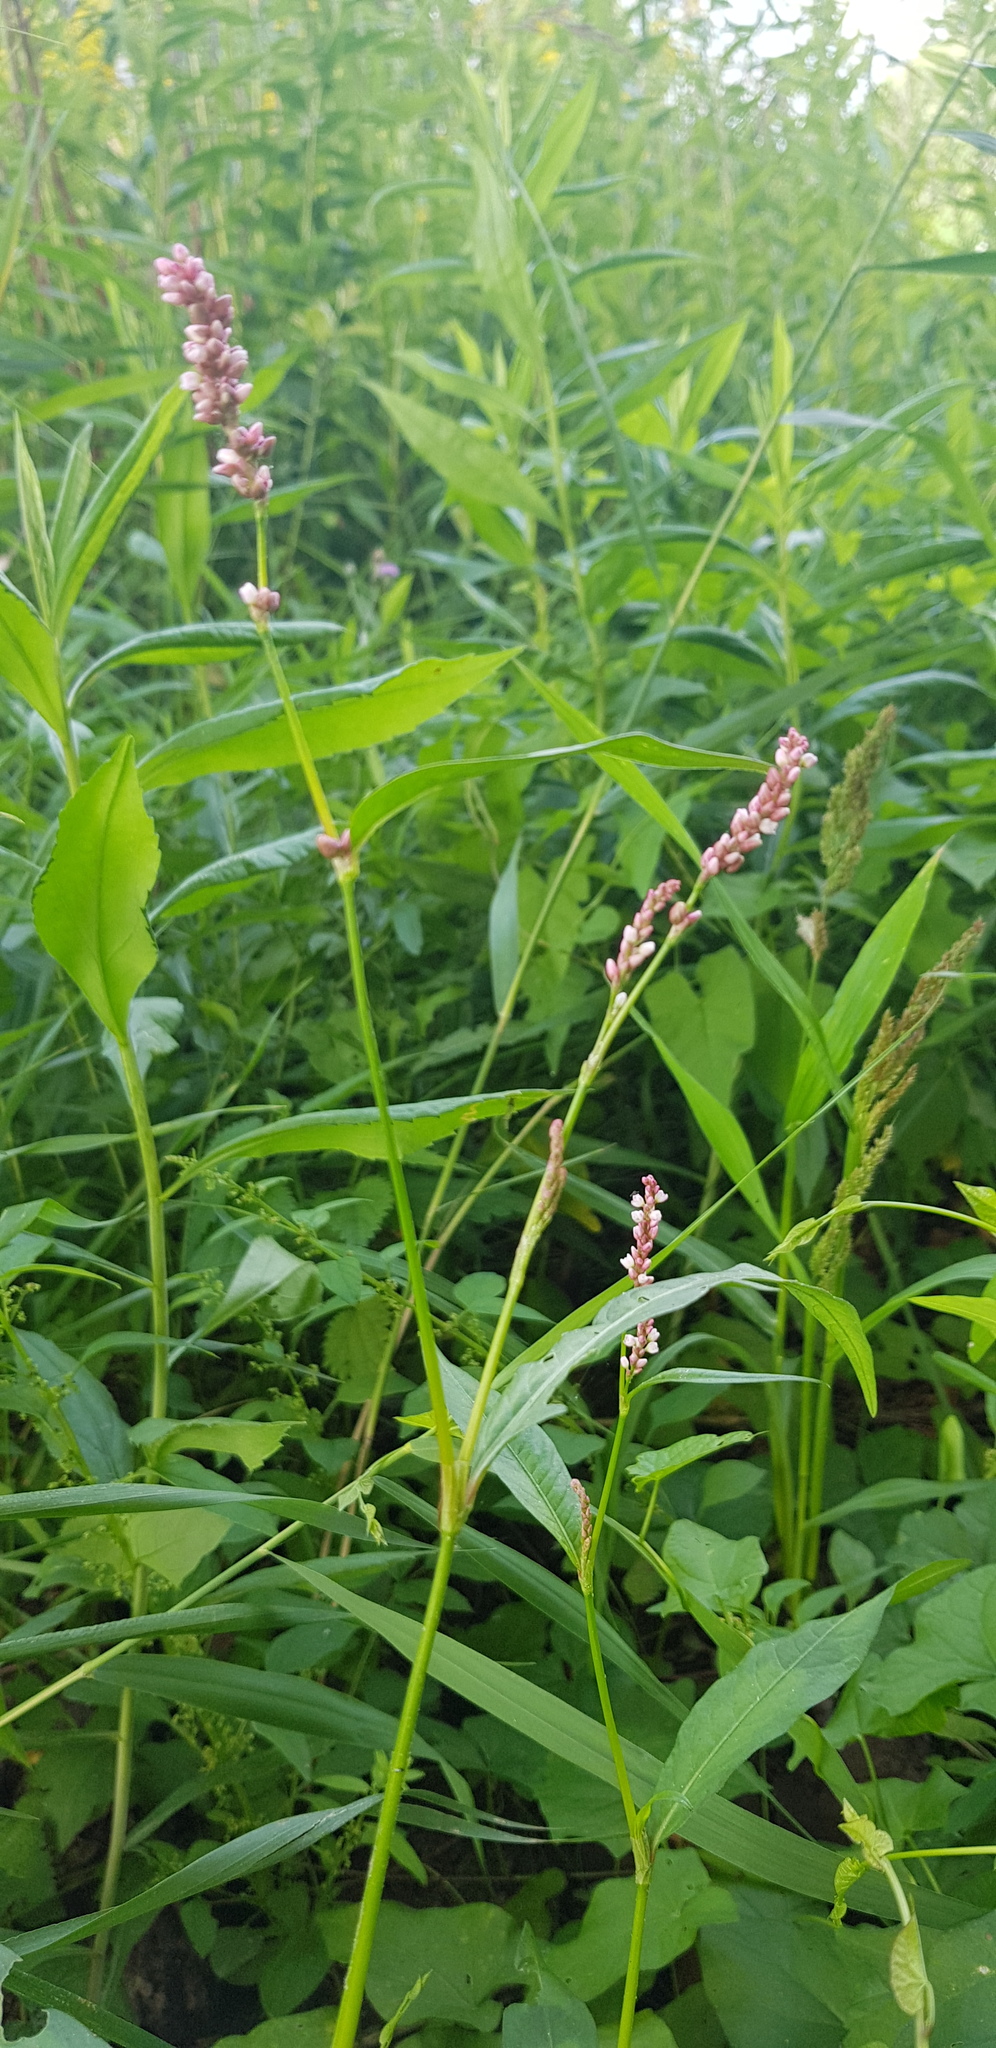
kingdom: Plantae
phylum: Tracheophyta
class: Magnoliopsida
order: Caryophyllales
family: Polygonaceae
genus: Persicaria
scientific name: Persicaria maculosa
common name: Redshank
